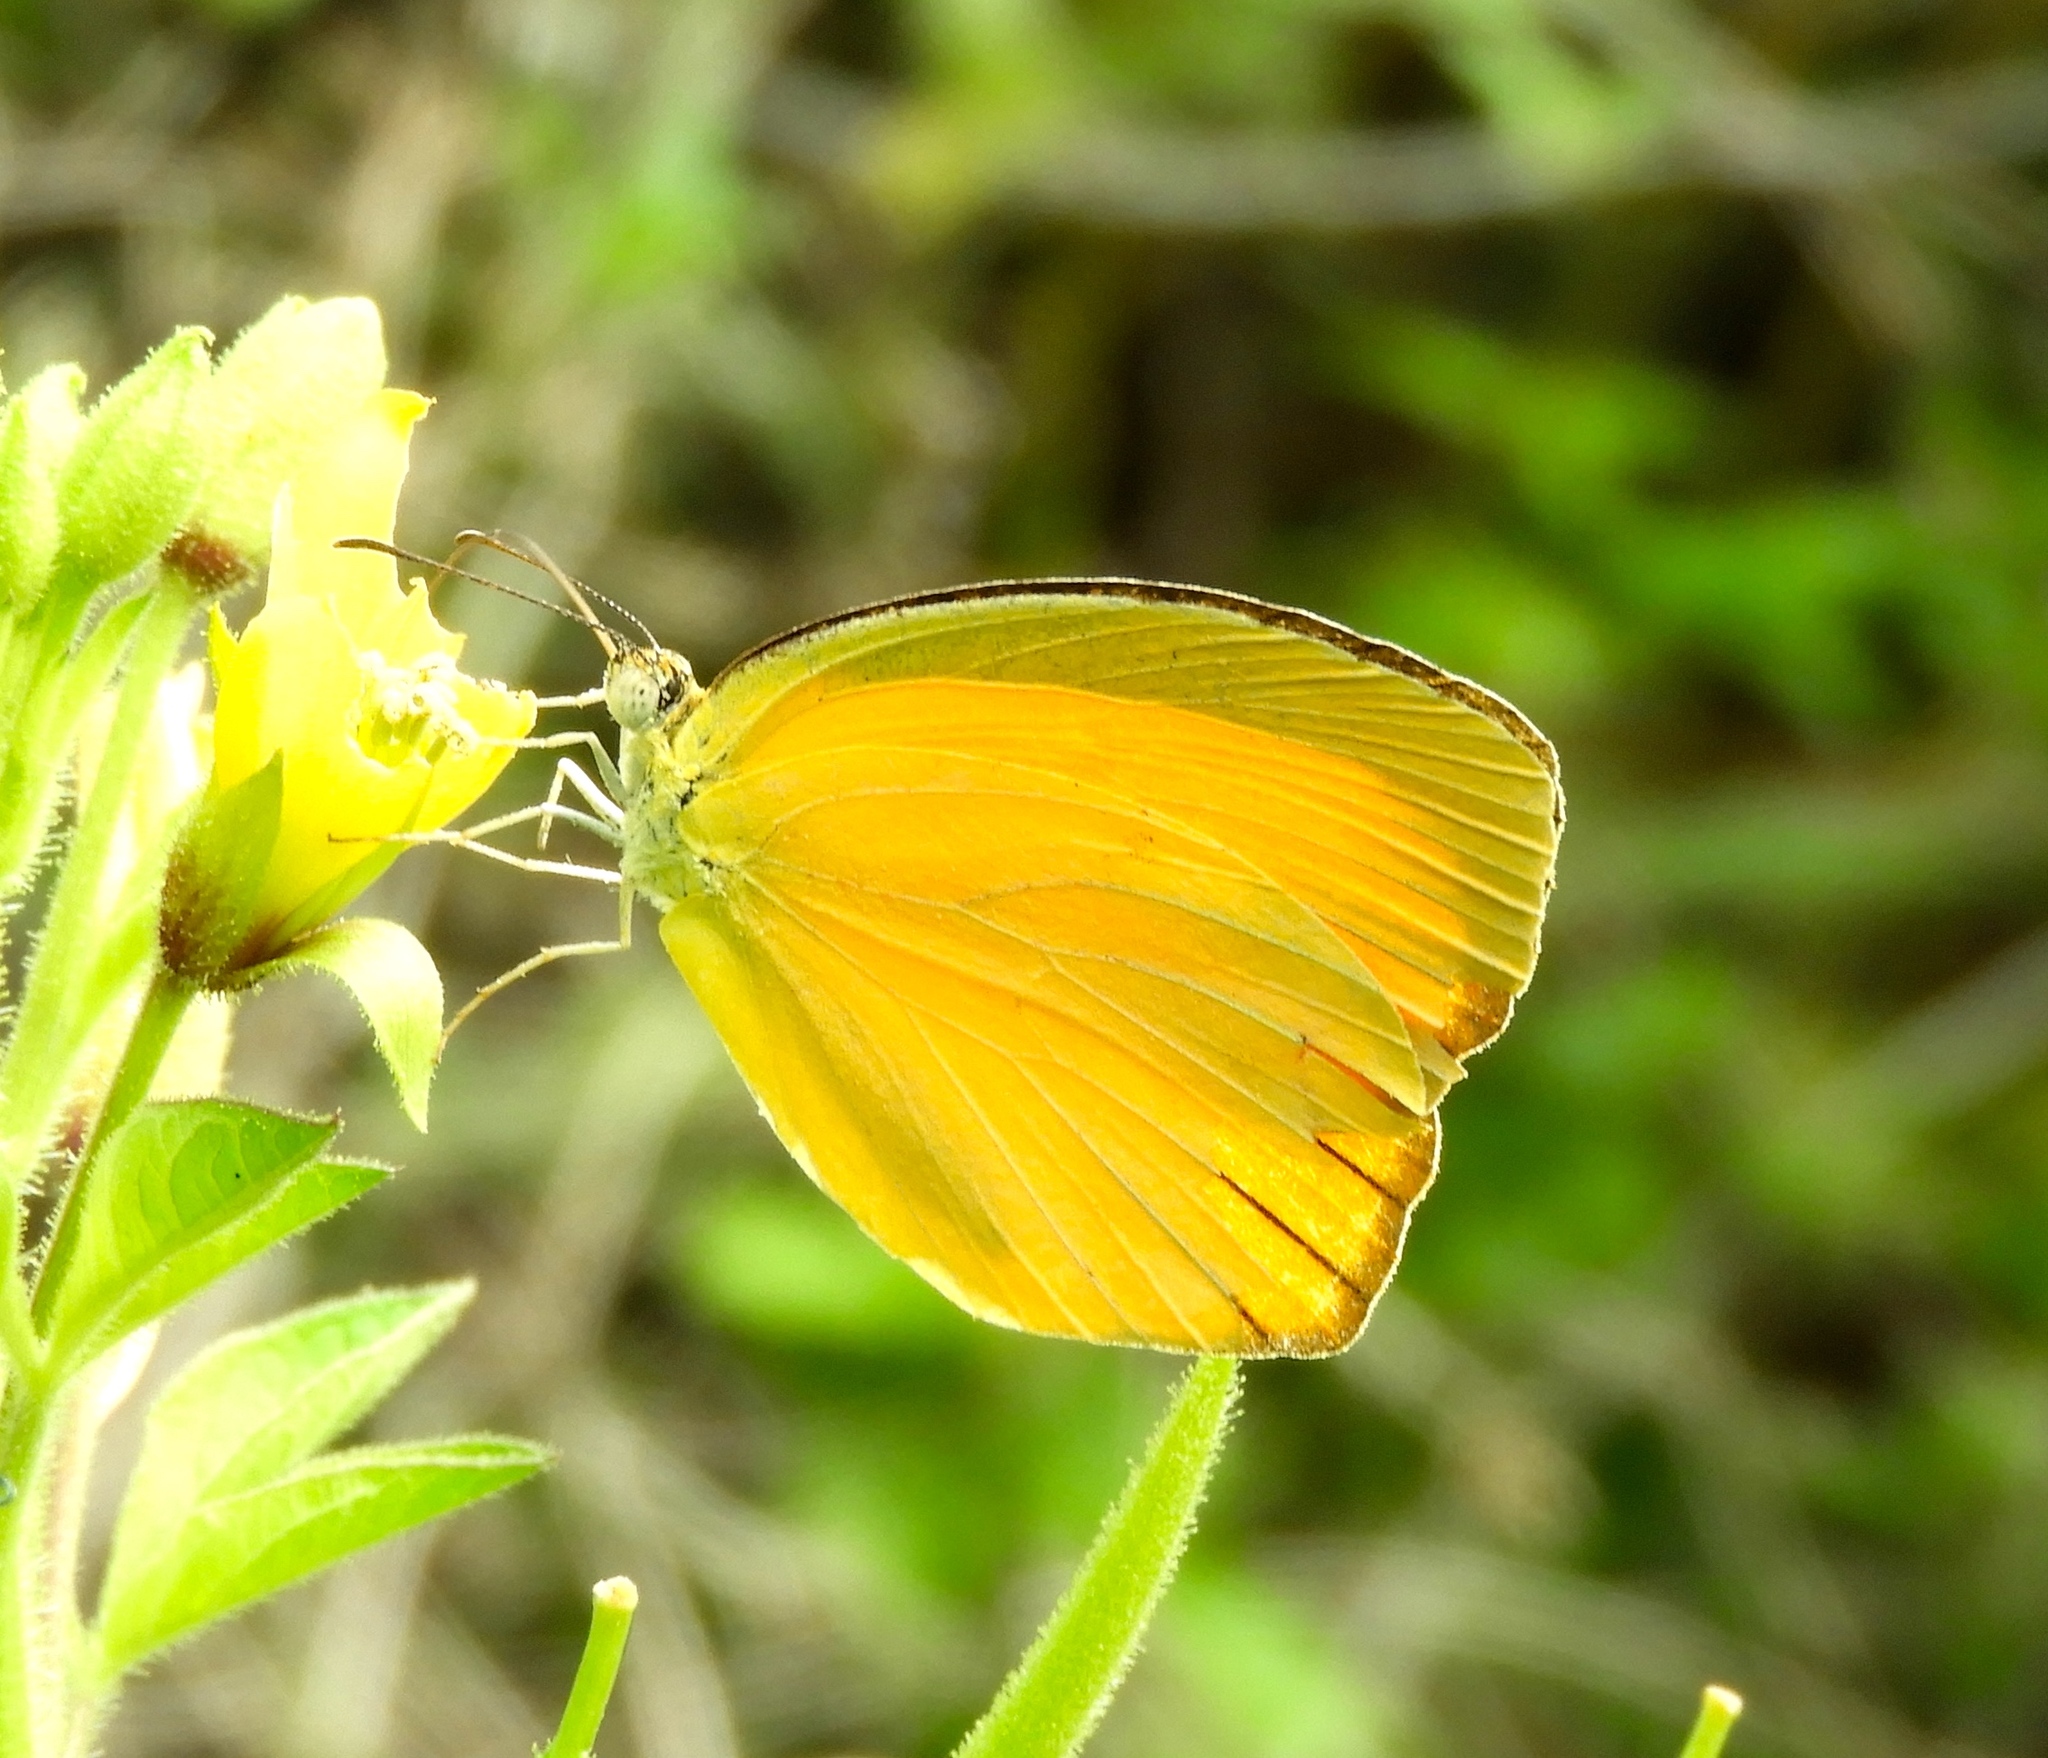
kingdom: Animalia
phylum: Arthropoda
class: Insecta
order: Lepidoptera
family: Pieridae
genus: Pyrisitia
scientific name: Pyrisitia proterpia
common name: Tailed orange
